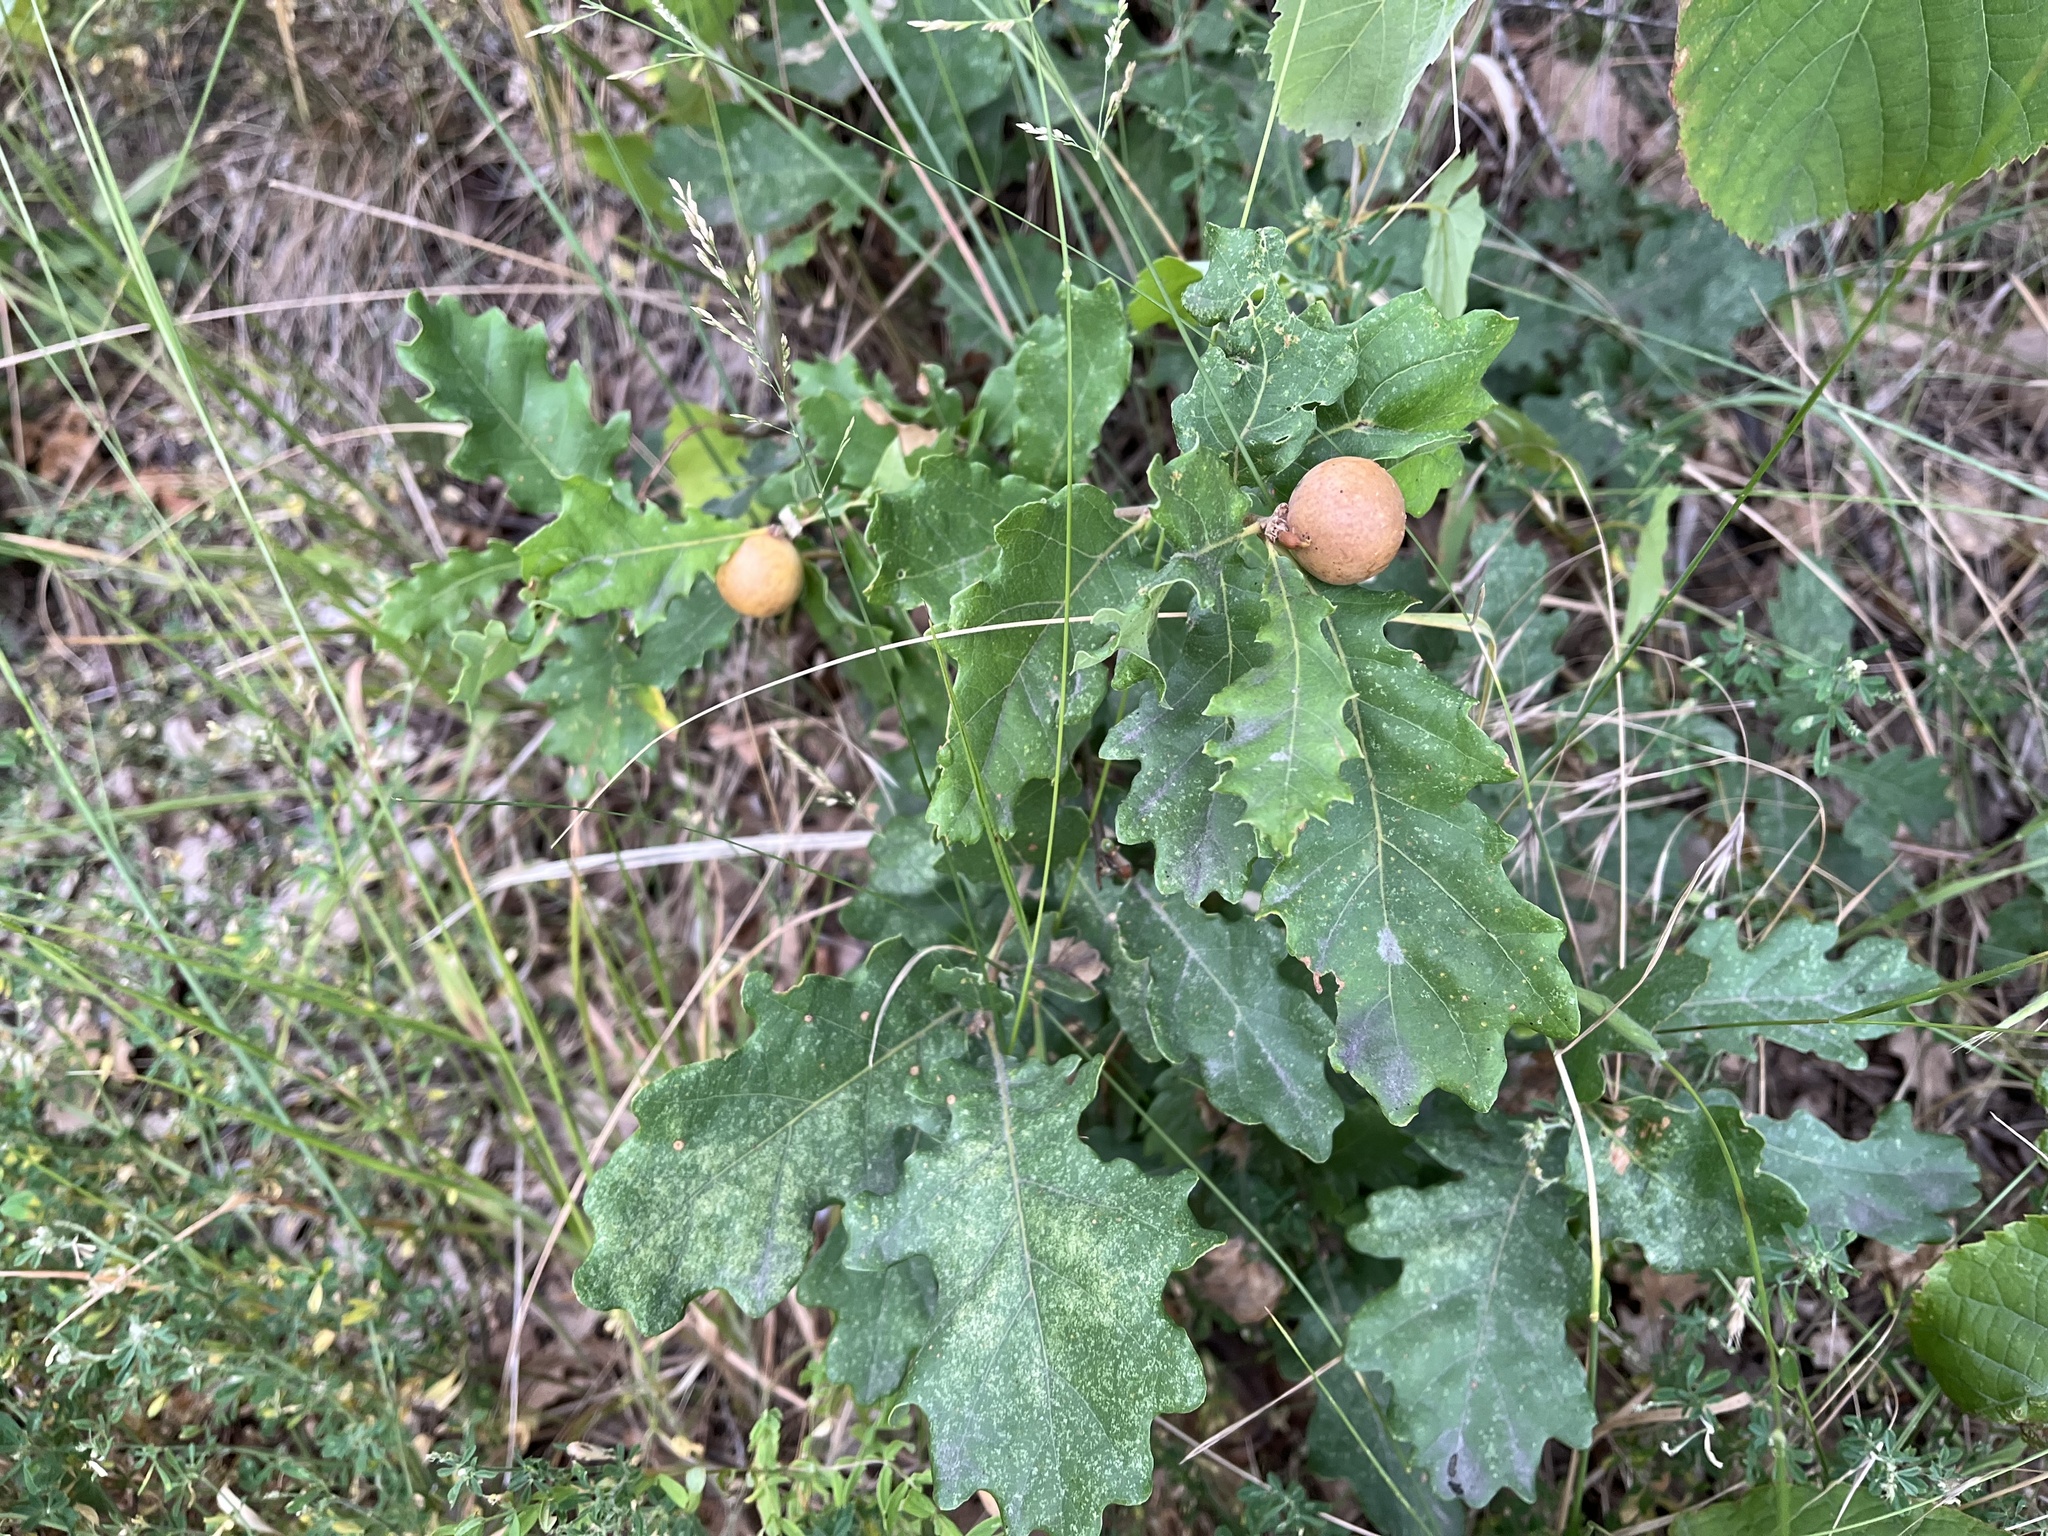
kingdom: Animalia
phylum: Arthropoda
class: Insecta
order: Hymenoptera
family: Cynipidae
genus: Andricus
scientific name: Andricus kollari
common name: Marble gall
